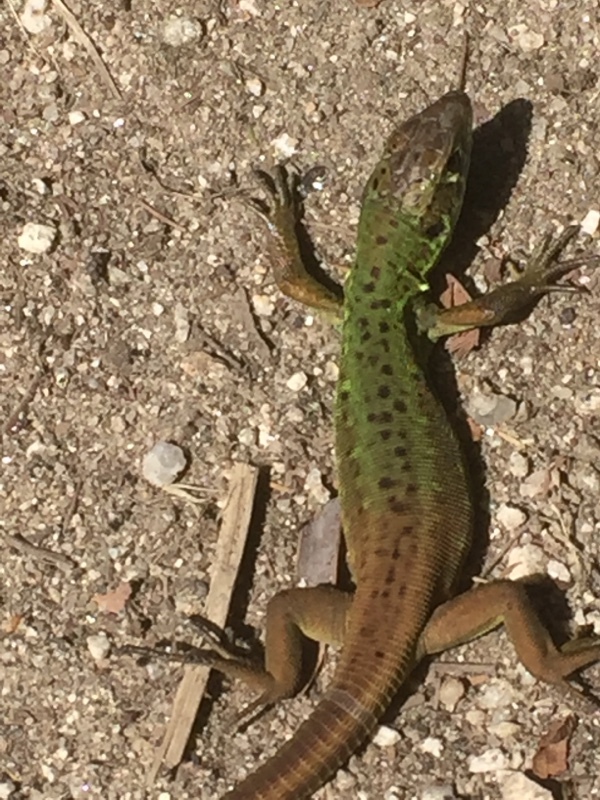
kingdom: Animalia
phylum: Chordata
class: Squamata
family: Lacertidae
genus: Lacerta
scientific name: Lacerta schreiberi
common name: Iberian emerald lizard
